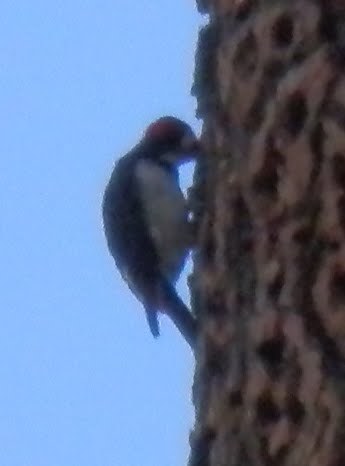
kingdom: Animalia
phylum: Chordata
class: Aves
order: Piciformes
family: Picidae
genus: Melanerpes
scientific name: Melanerpes formicivorus
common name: Acorn woodpecker
